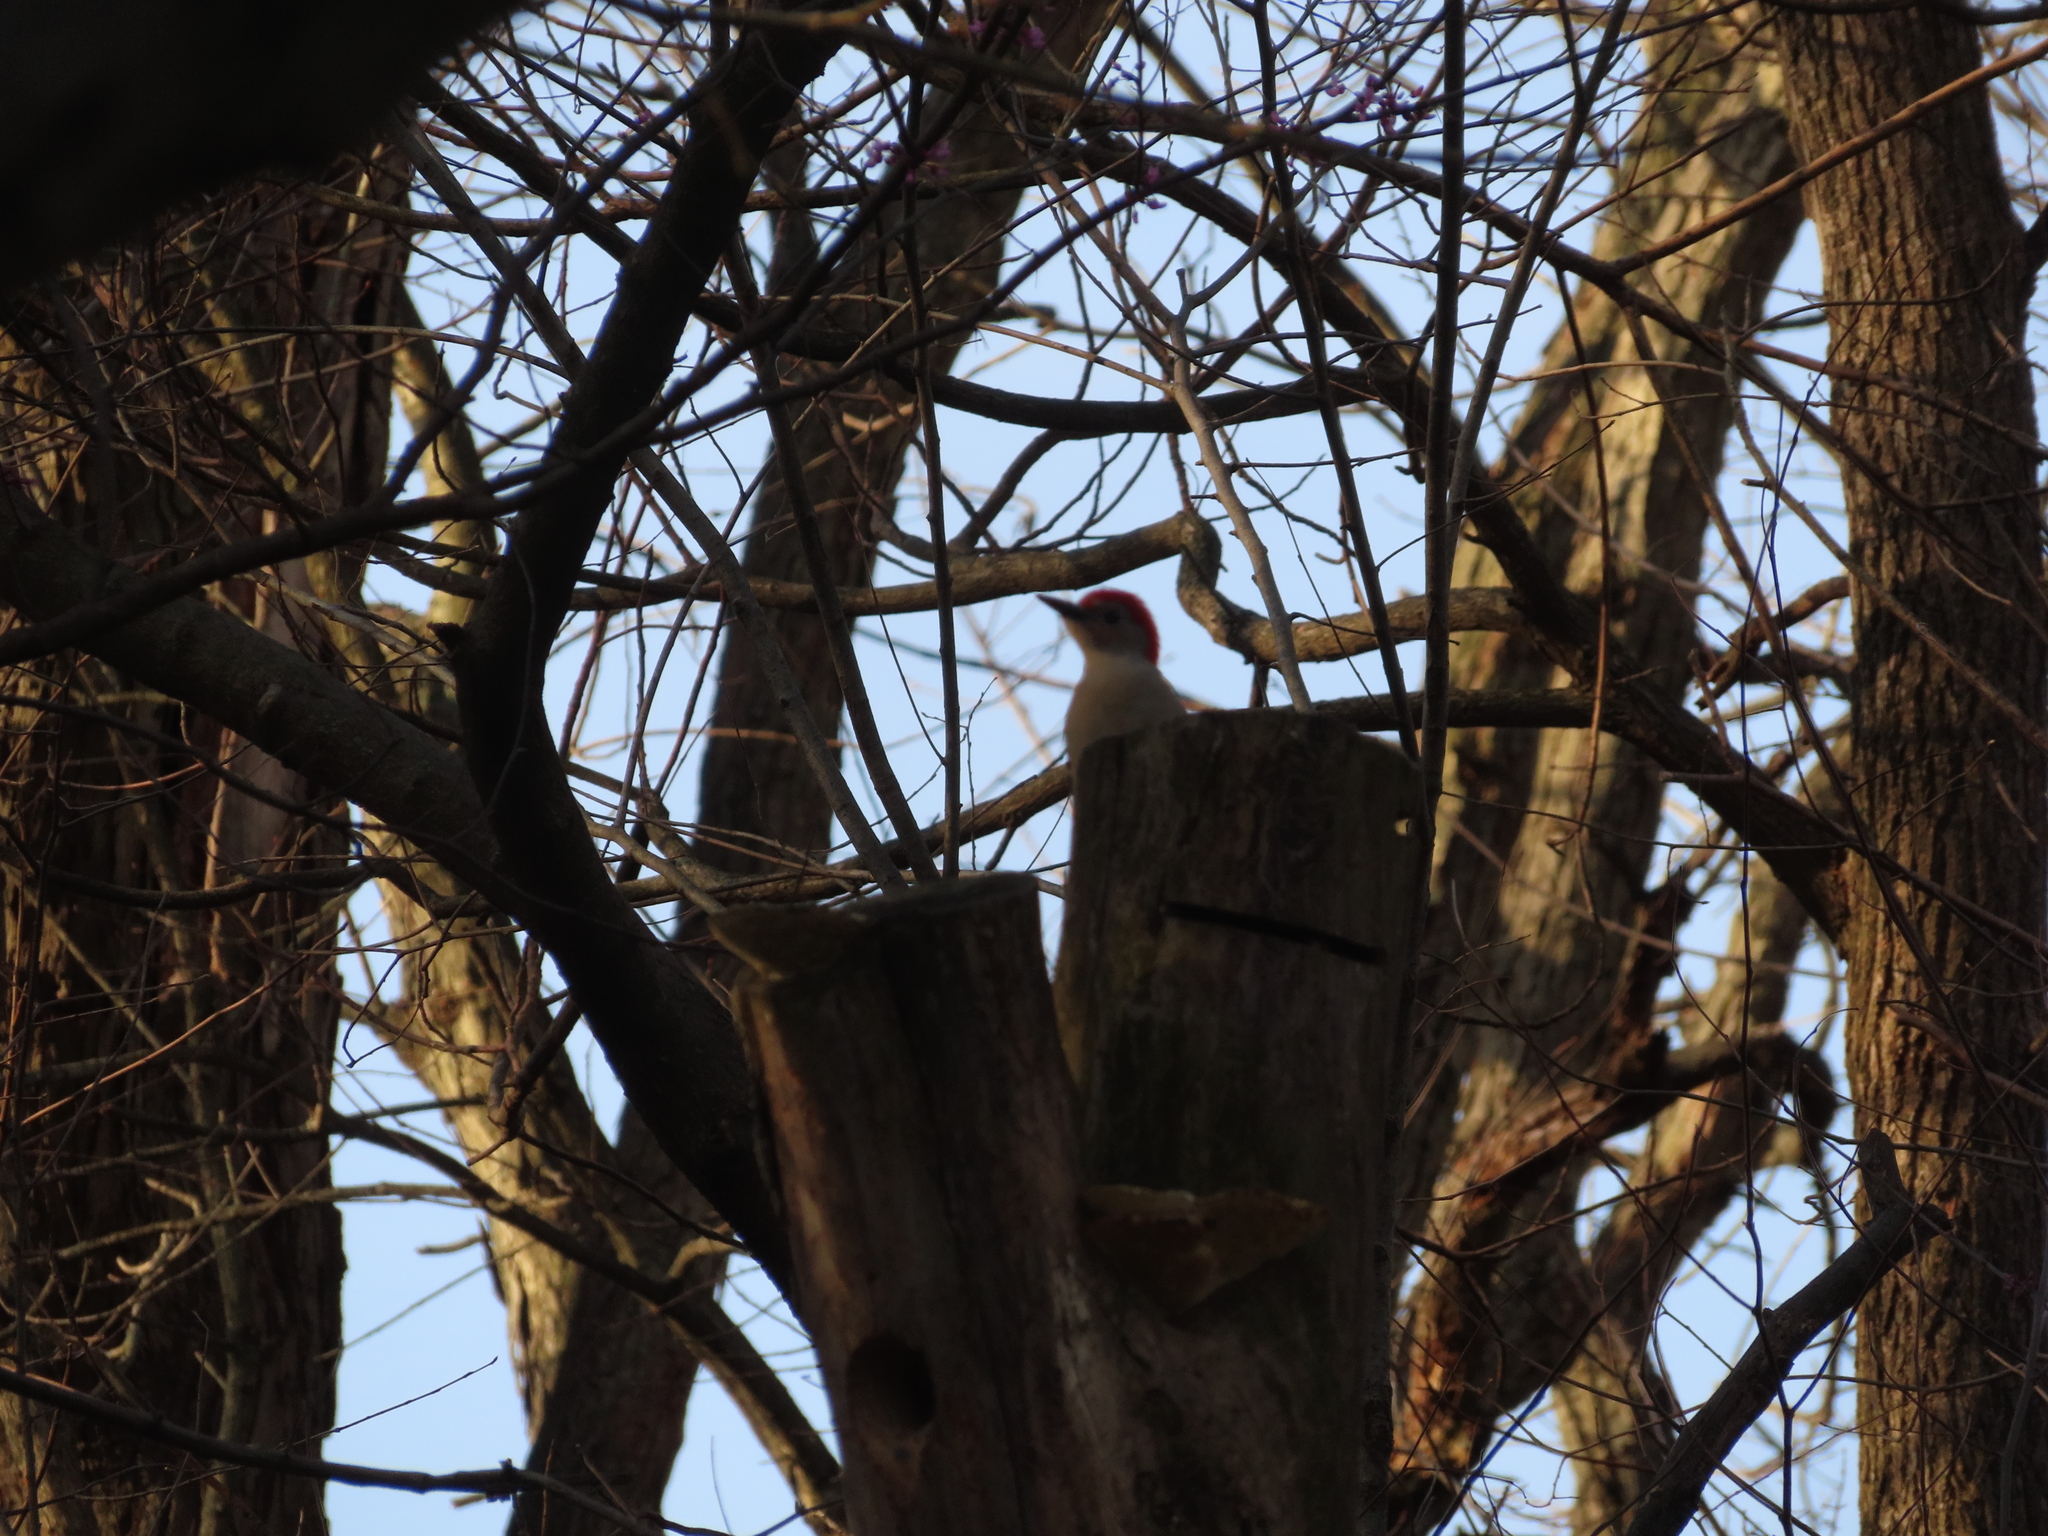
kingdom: Animalia
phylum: Chordata
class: Aves
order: Piciformes
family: Picidae
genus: Melanerpes
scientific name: Melanerpes carolinus
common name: Red-bellied woodpecker
